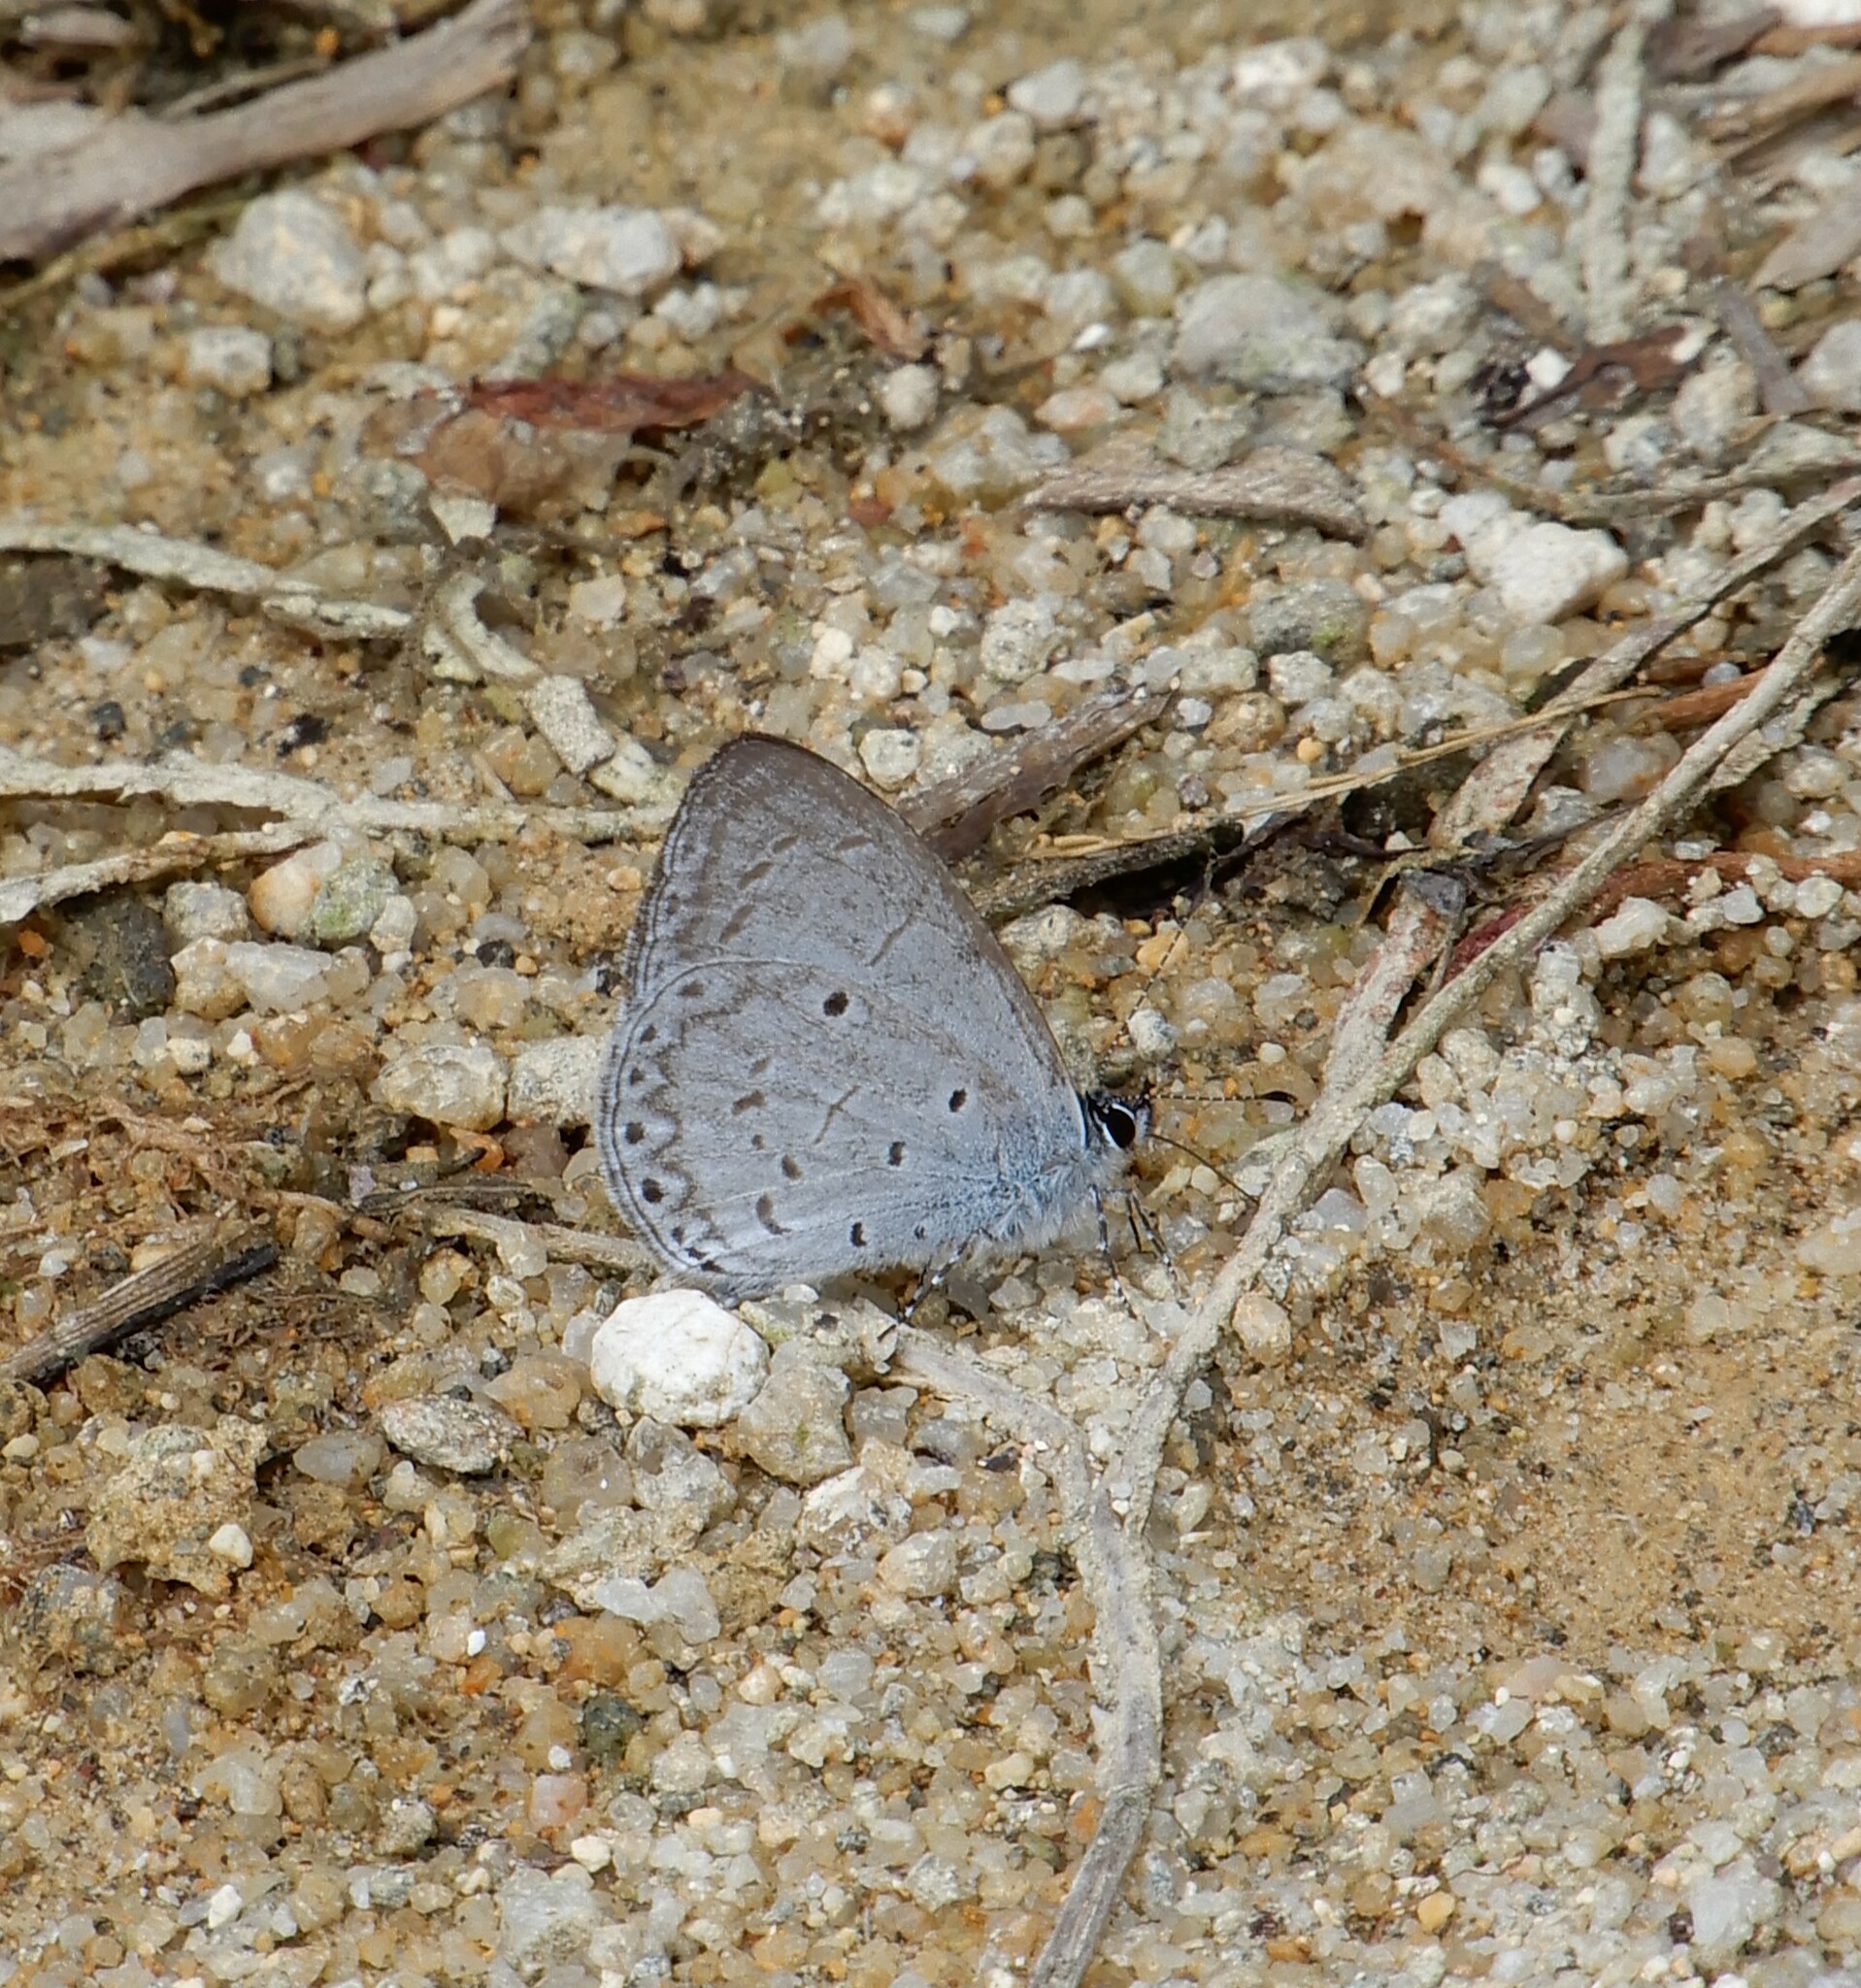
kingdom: Animalia
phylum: Arthropoda
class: Insecta
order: Lepidoptera
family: Lycaenidae
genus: Udara
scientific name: Udara
